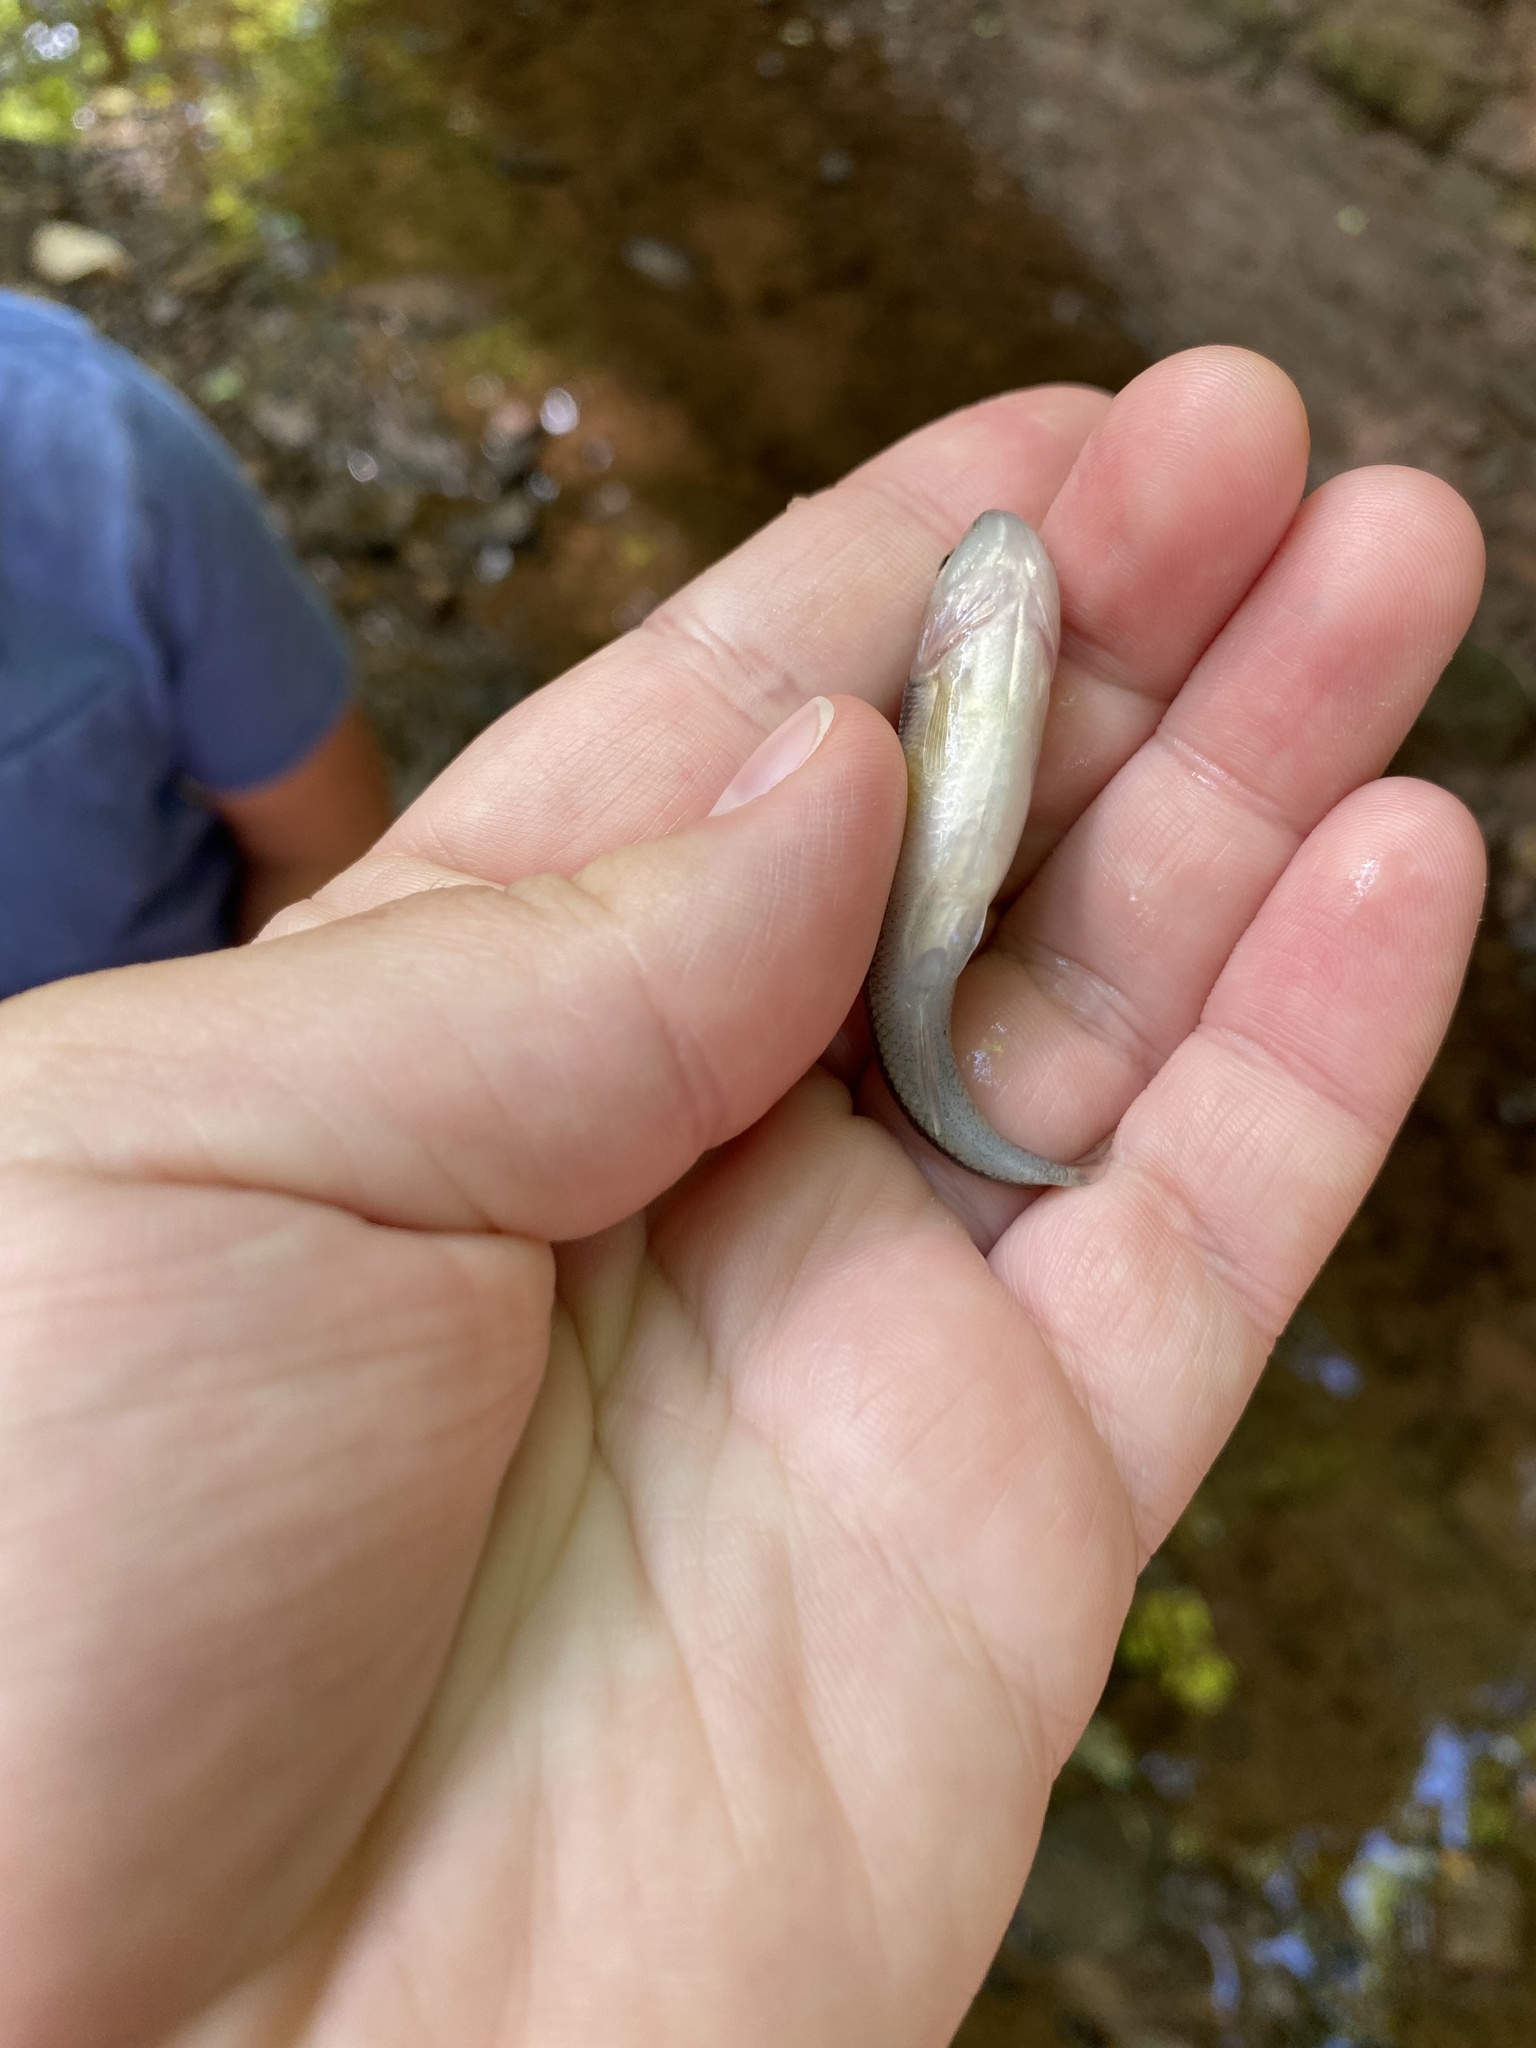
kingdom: Animalia
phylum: Chordata
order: Cypriniformes
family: Cyprinidae
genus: Semotilus
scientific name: Semotilus atromaculatus
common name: Creek chub
